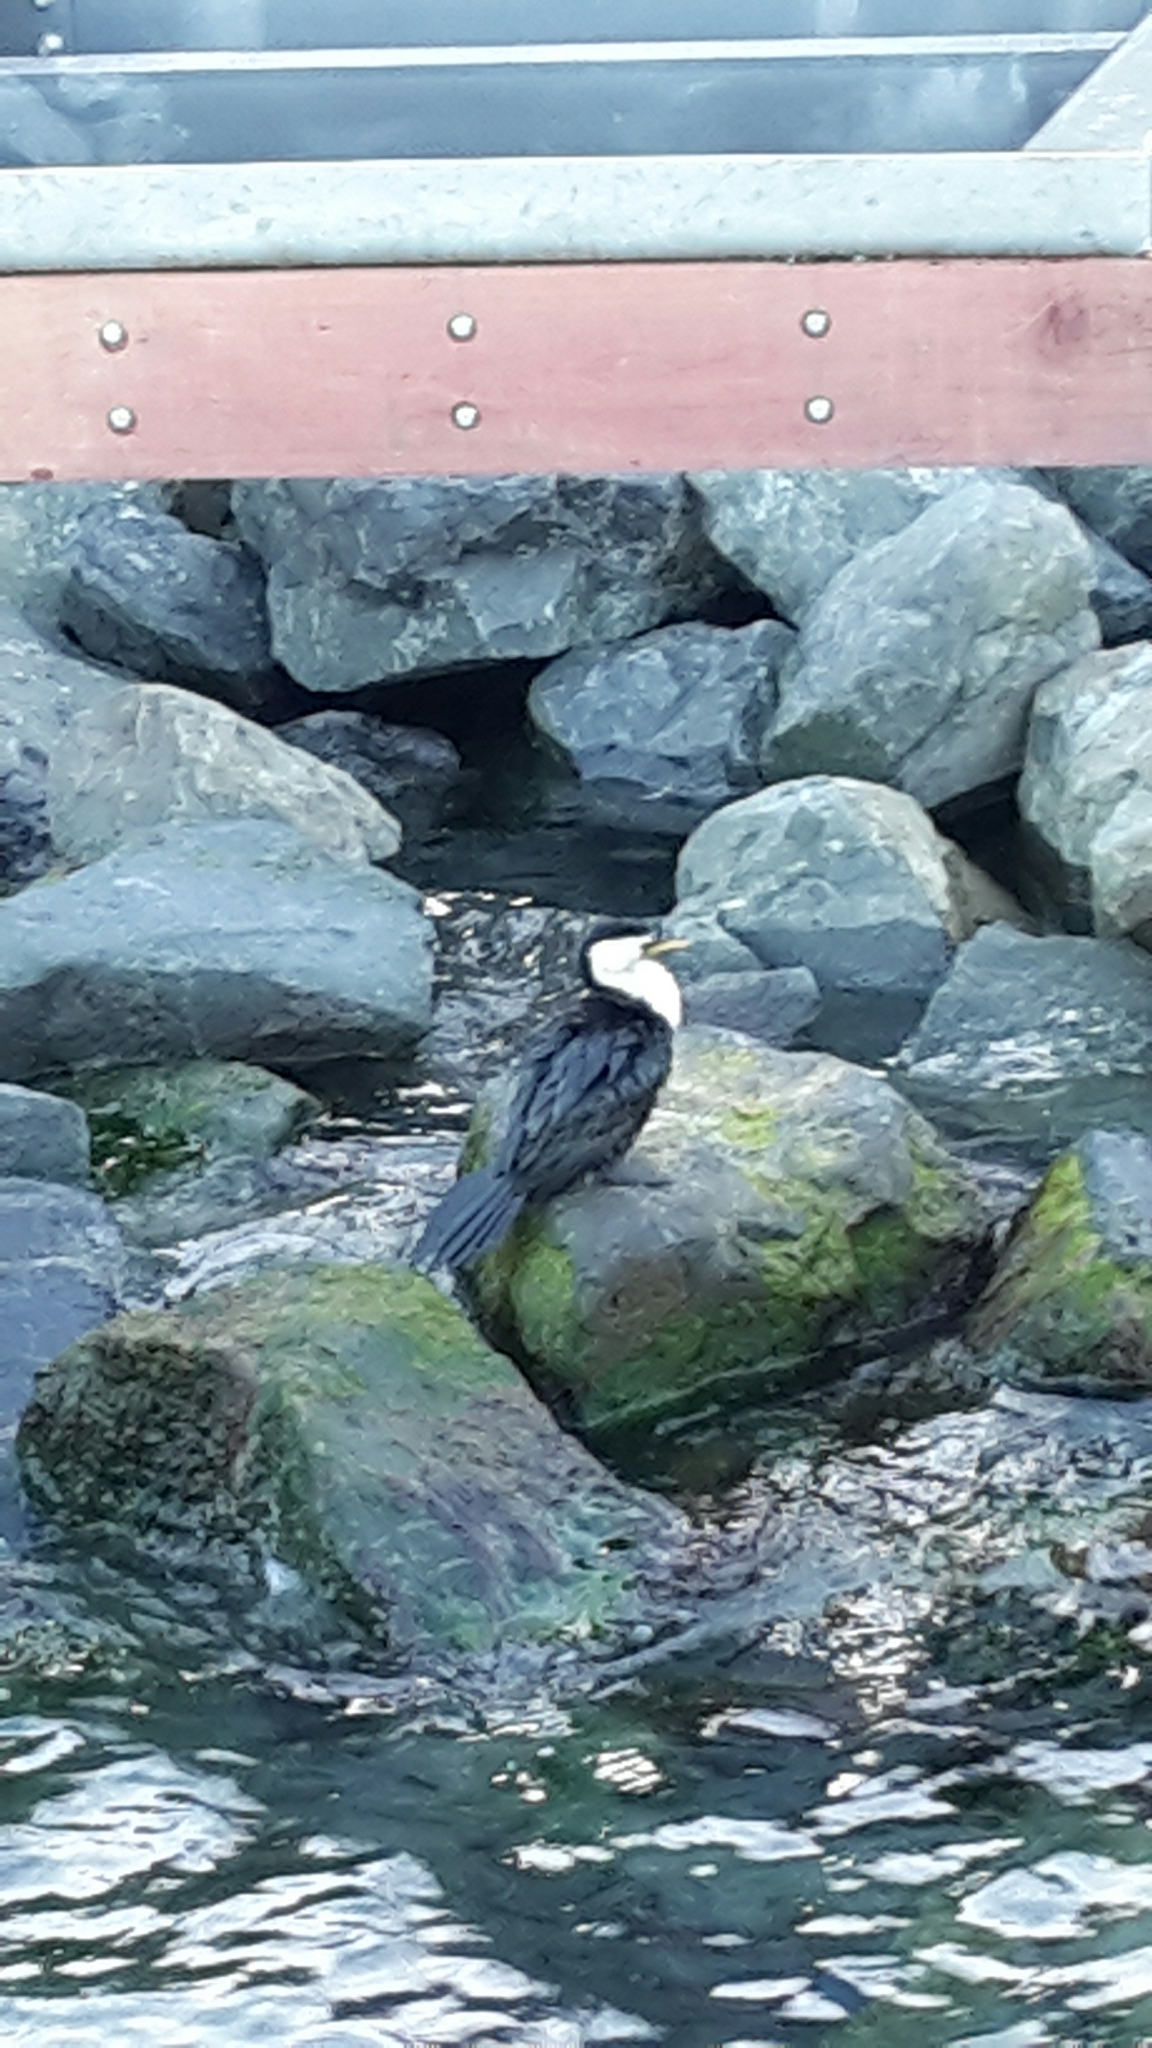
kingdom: Animalia
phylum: Chordata
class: Aves
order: Suliformes
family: Phalacrocoracidae
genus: Microcarbo
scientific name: Microcarbo melanoleucos
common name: Little pied cormorant
